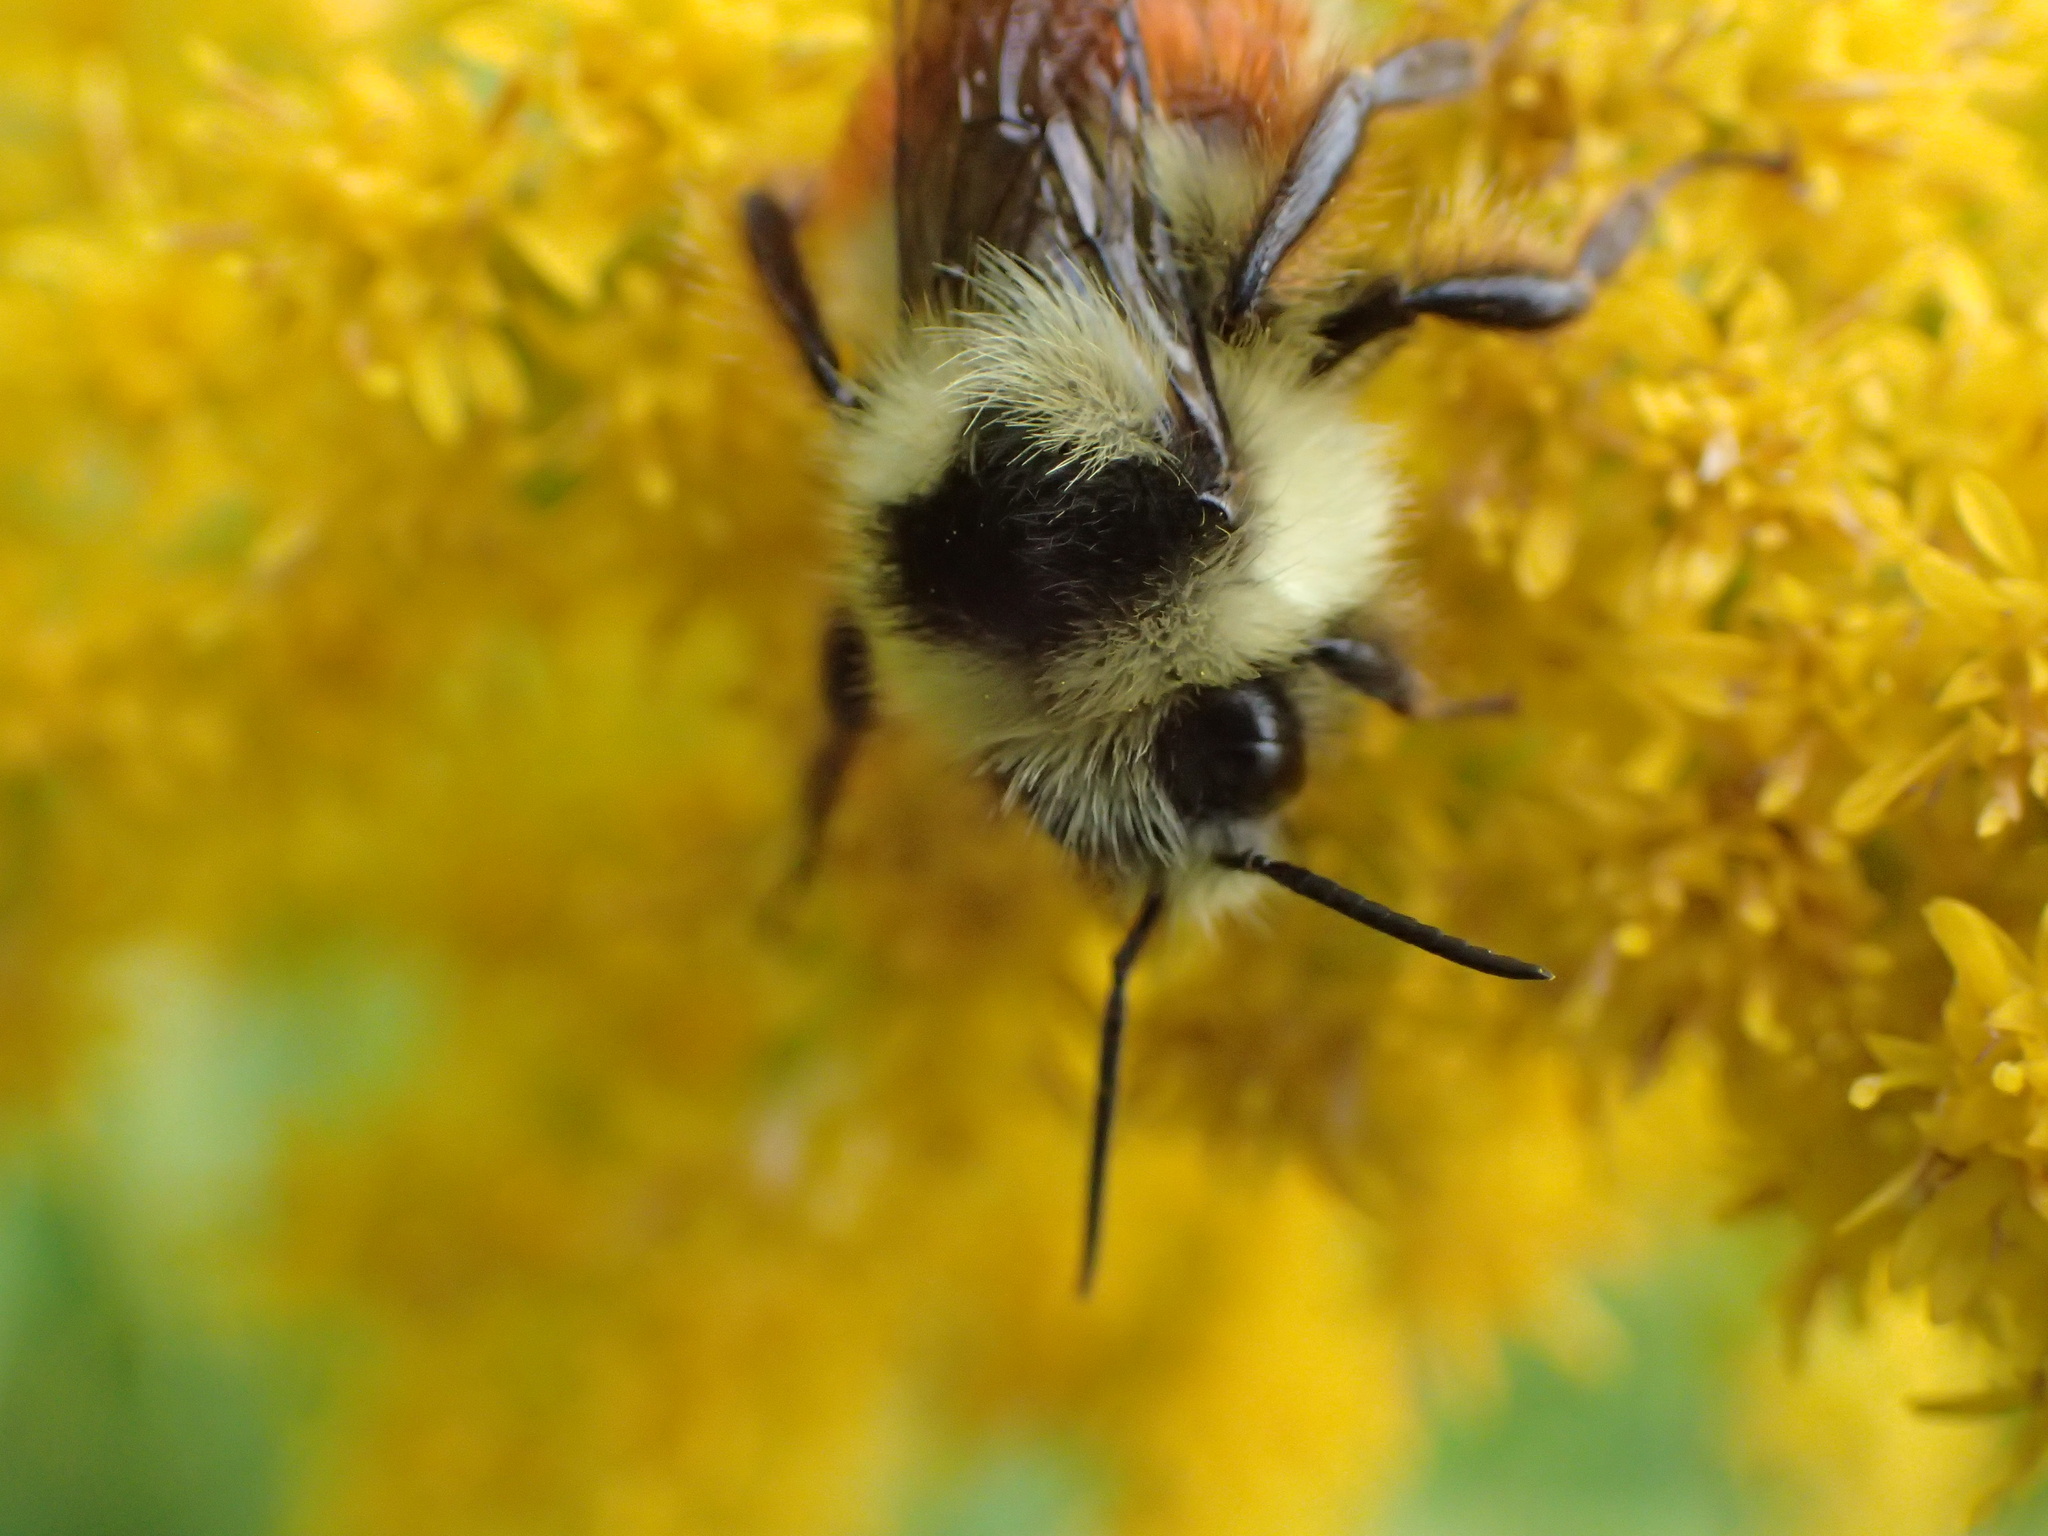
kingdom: Animalia
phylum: Arthropoda
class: Insecta
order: Hymenoptera
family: Apidae
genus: Bombus
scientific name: Bombus ternarius
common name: Tri-colored bumble bee
